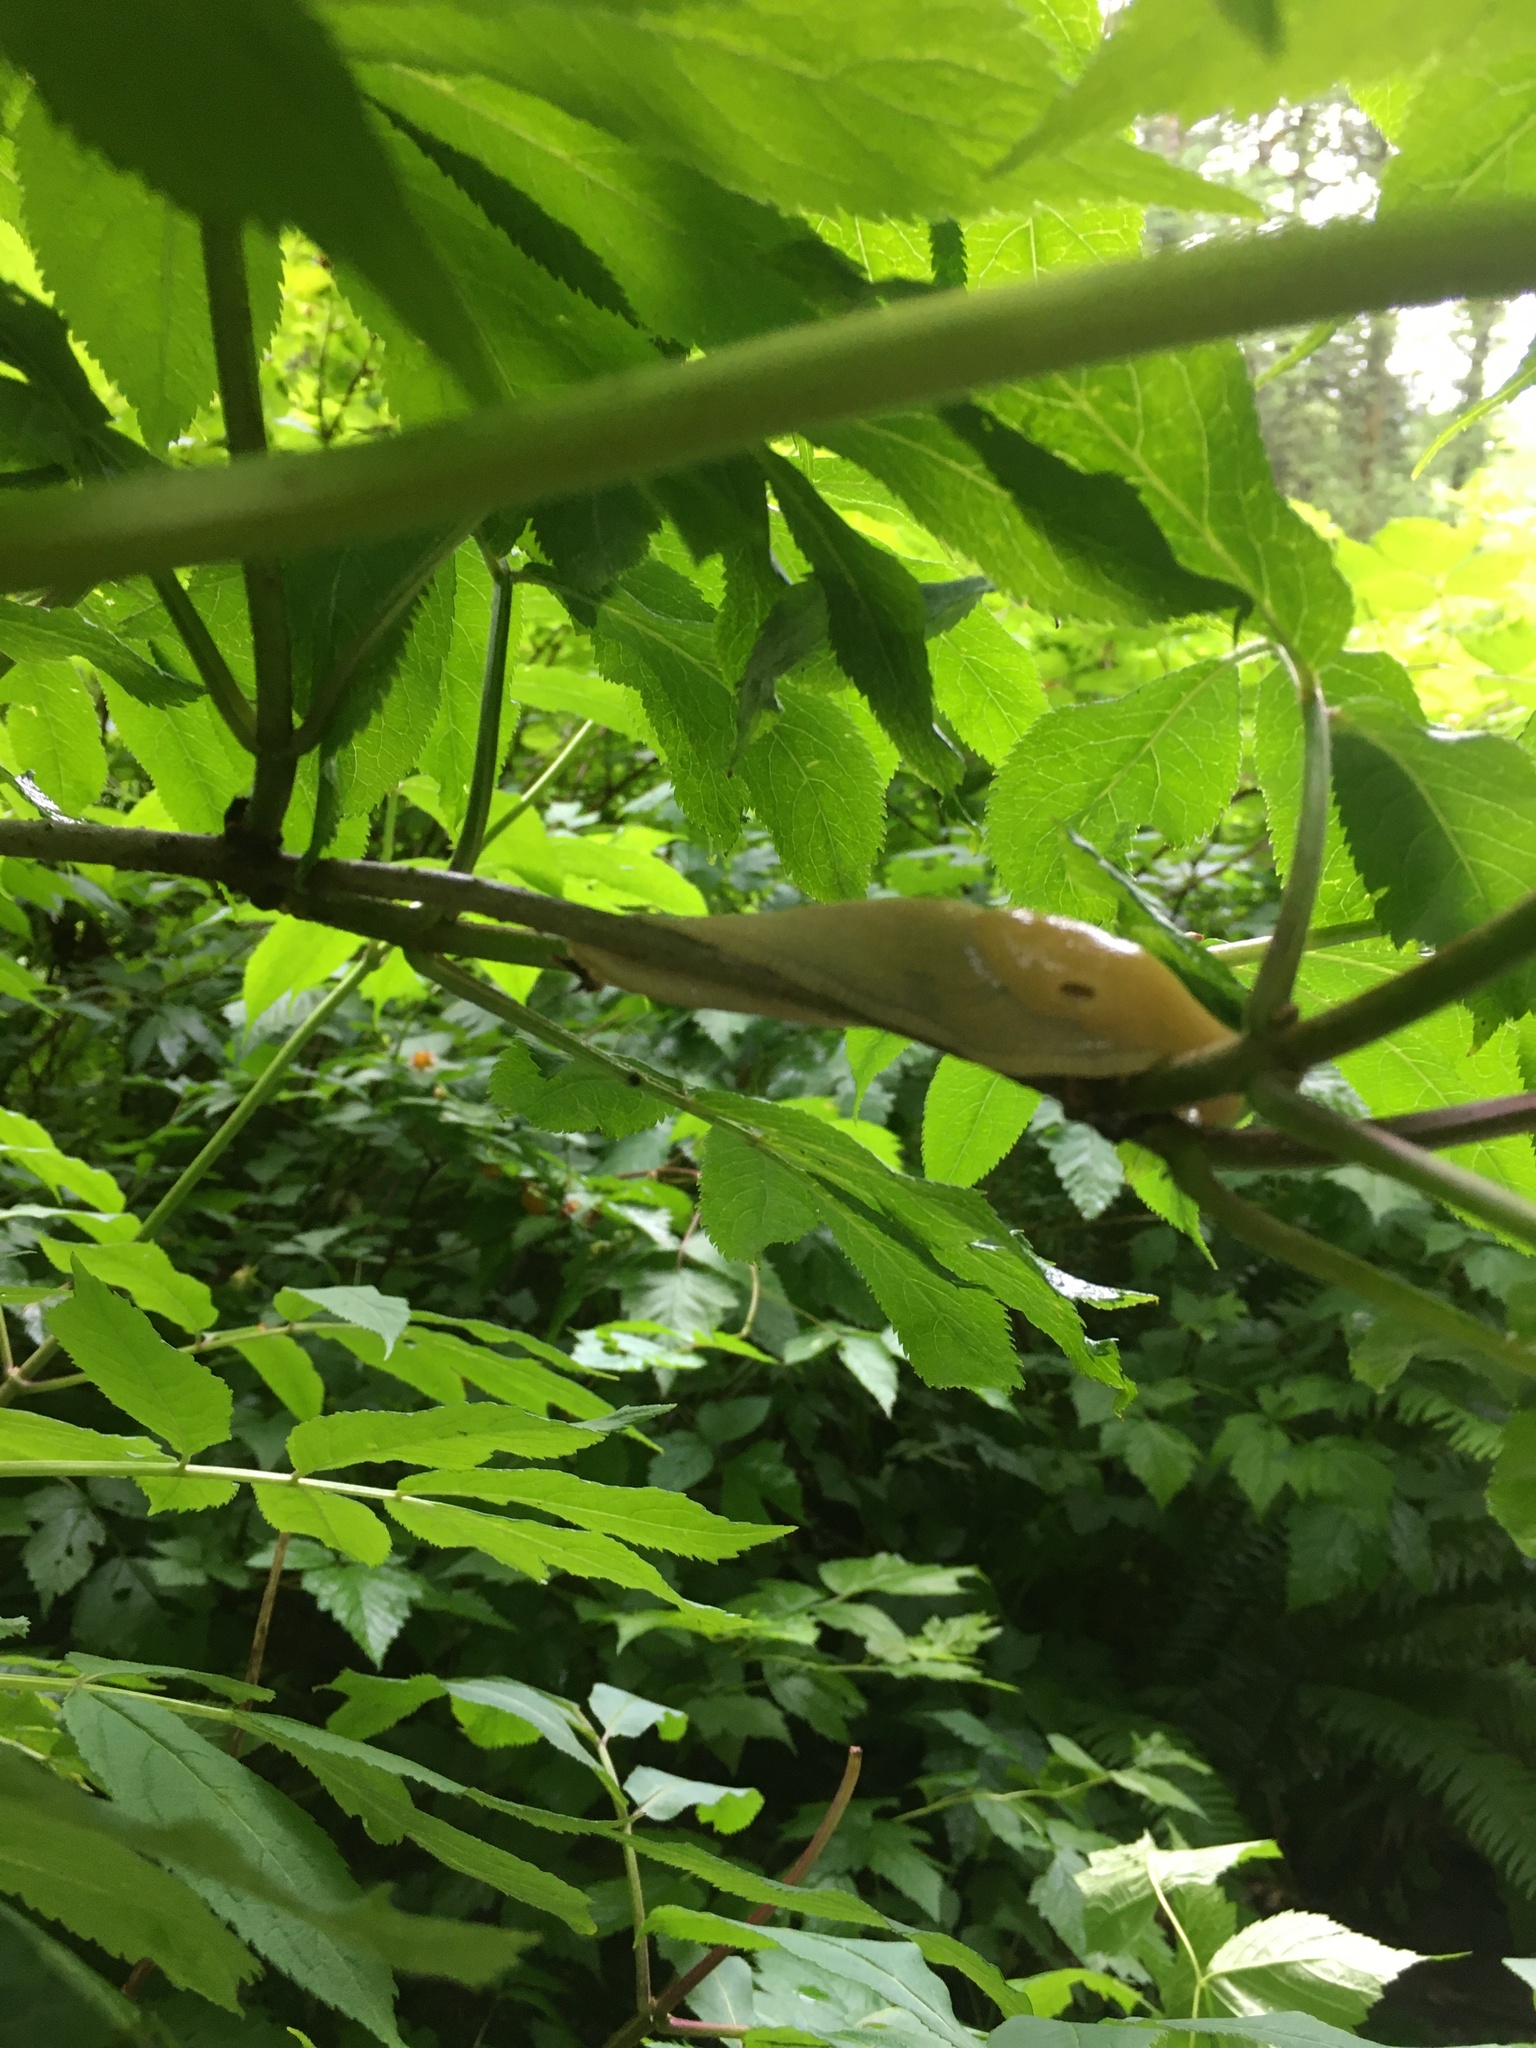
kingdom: Animalia
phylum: Mollusca
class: Gastropoda
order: Stylommatophora
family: Ariolimacidae
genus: Ariolimax
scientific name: Ariolimax columbianus
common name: Pacific banana slug
